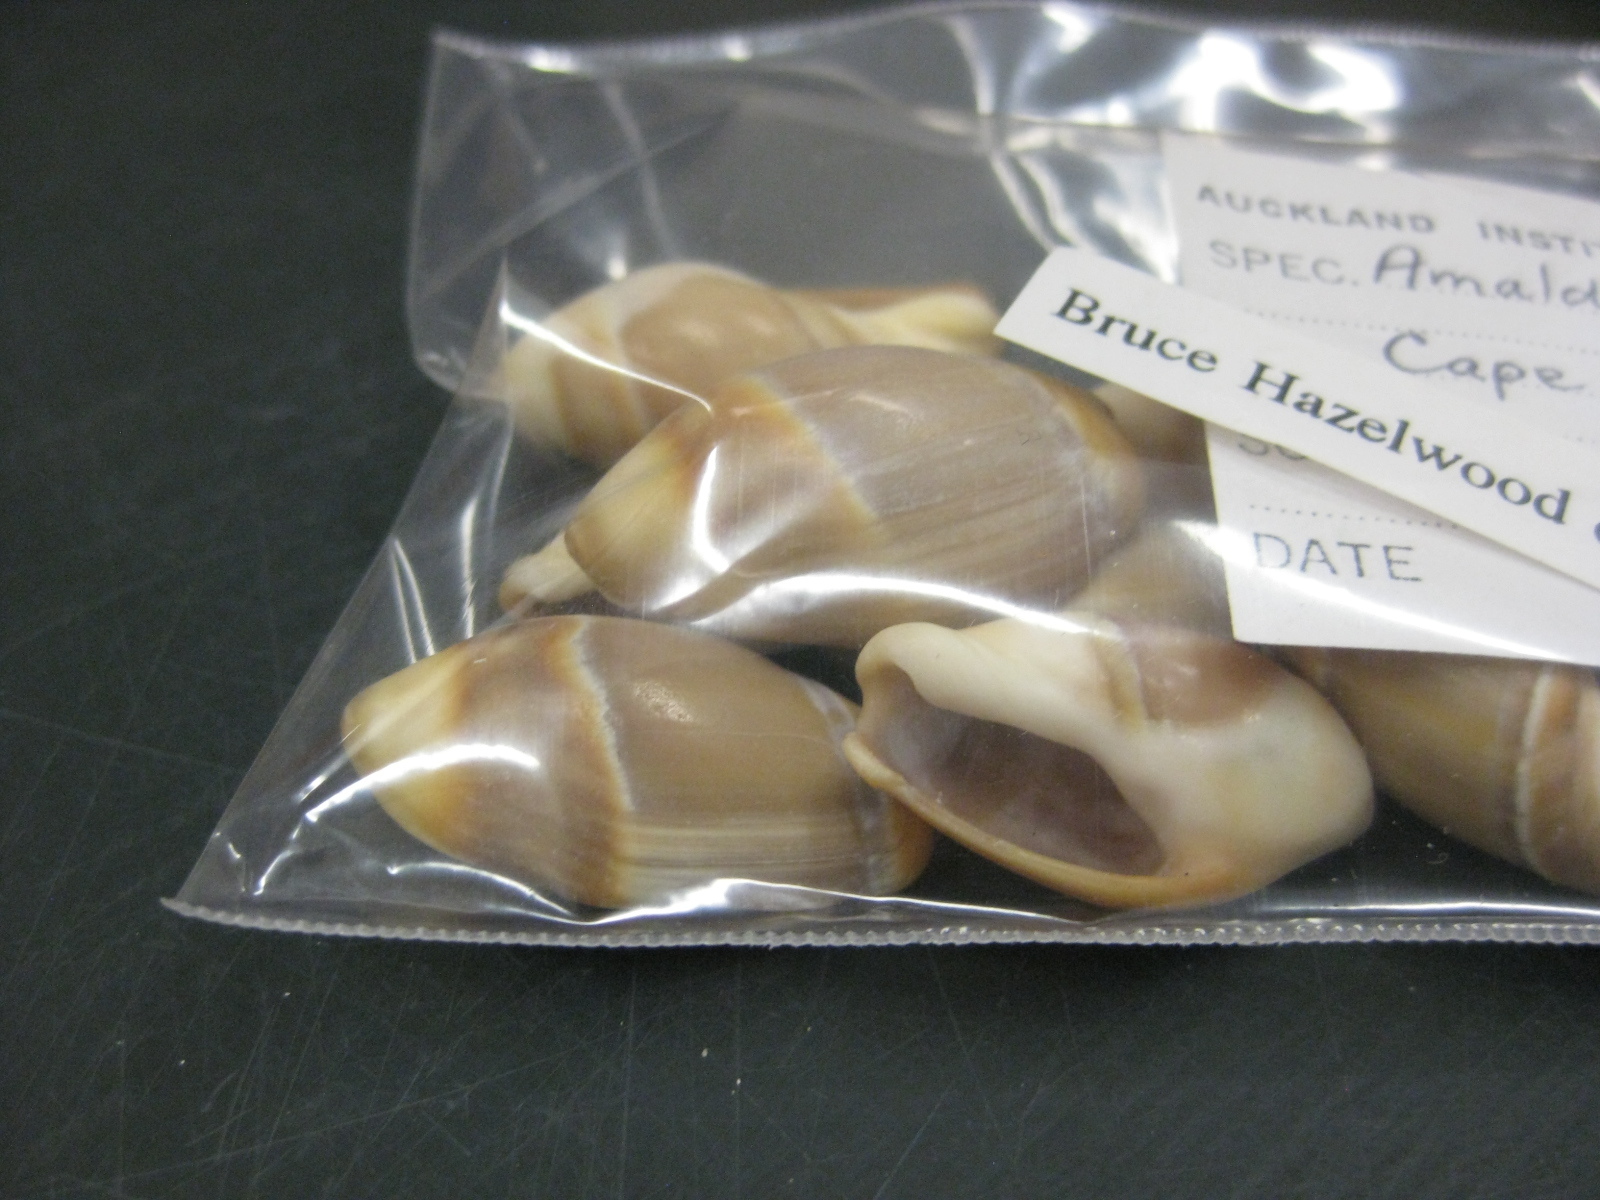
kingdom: Animalia
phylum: Mollusca
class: Gastropoda
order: Neogastropoda
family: Ancillariidae
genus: Amalda
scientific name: Amalda australis
